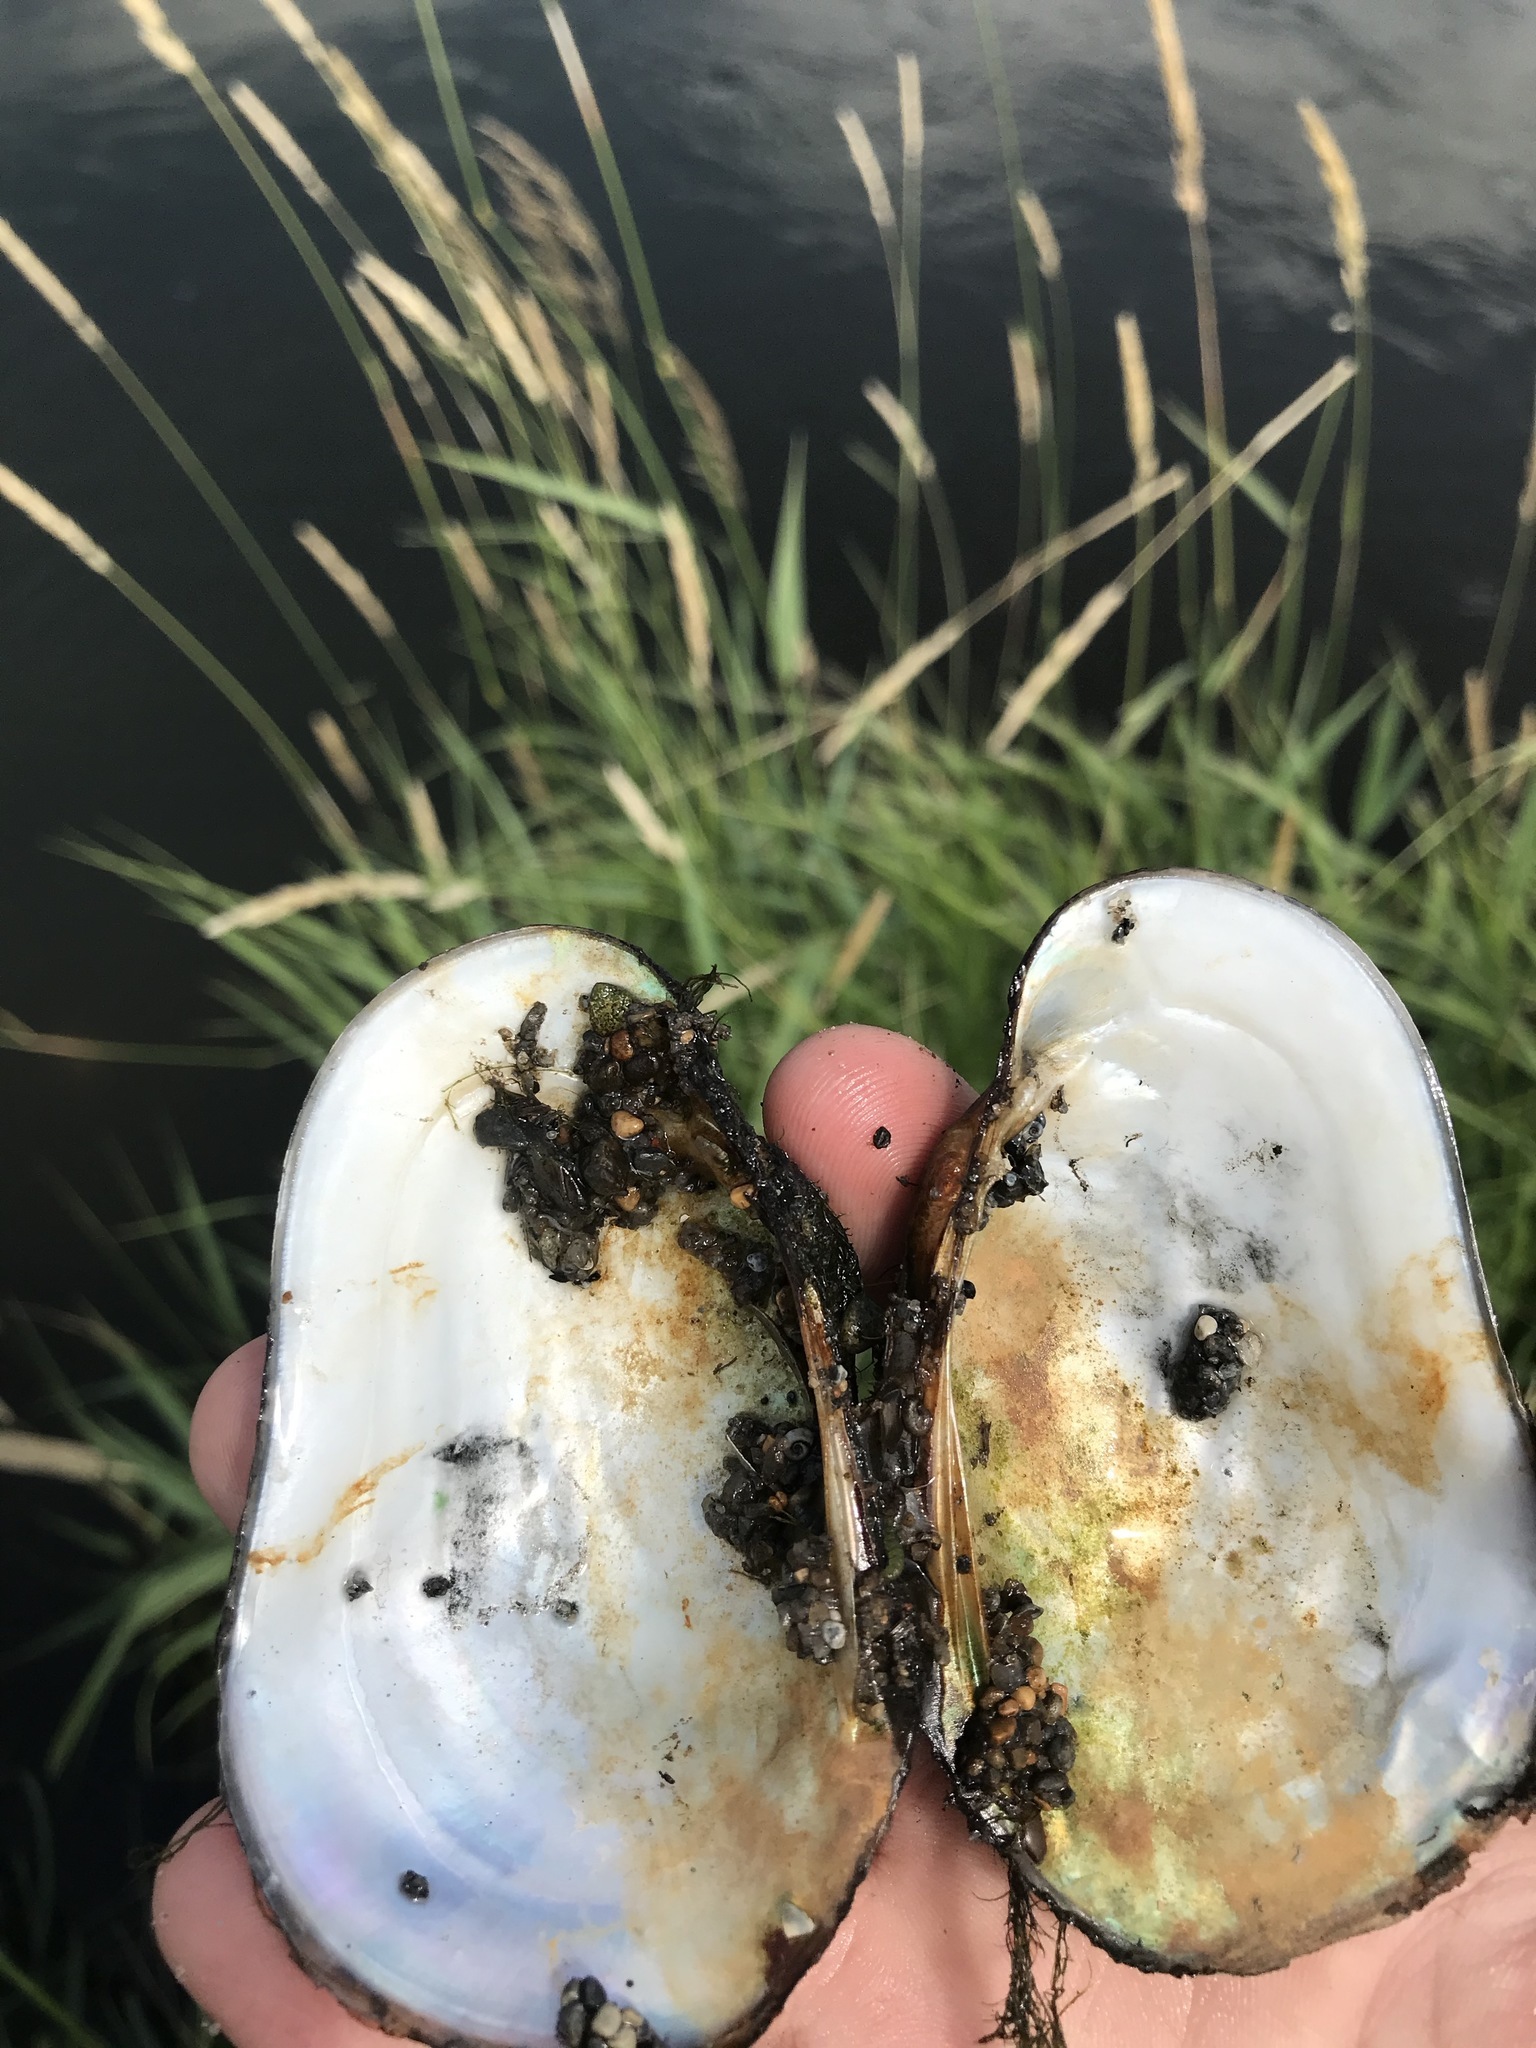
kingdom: Animalia
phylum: Mollusca
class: Bivalvia
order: Unionida
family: Unionidae
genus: Lampsilis
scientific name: Lampsilis siliquoidea
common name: Fatmucket
